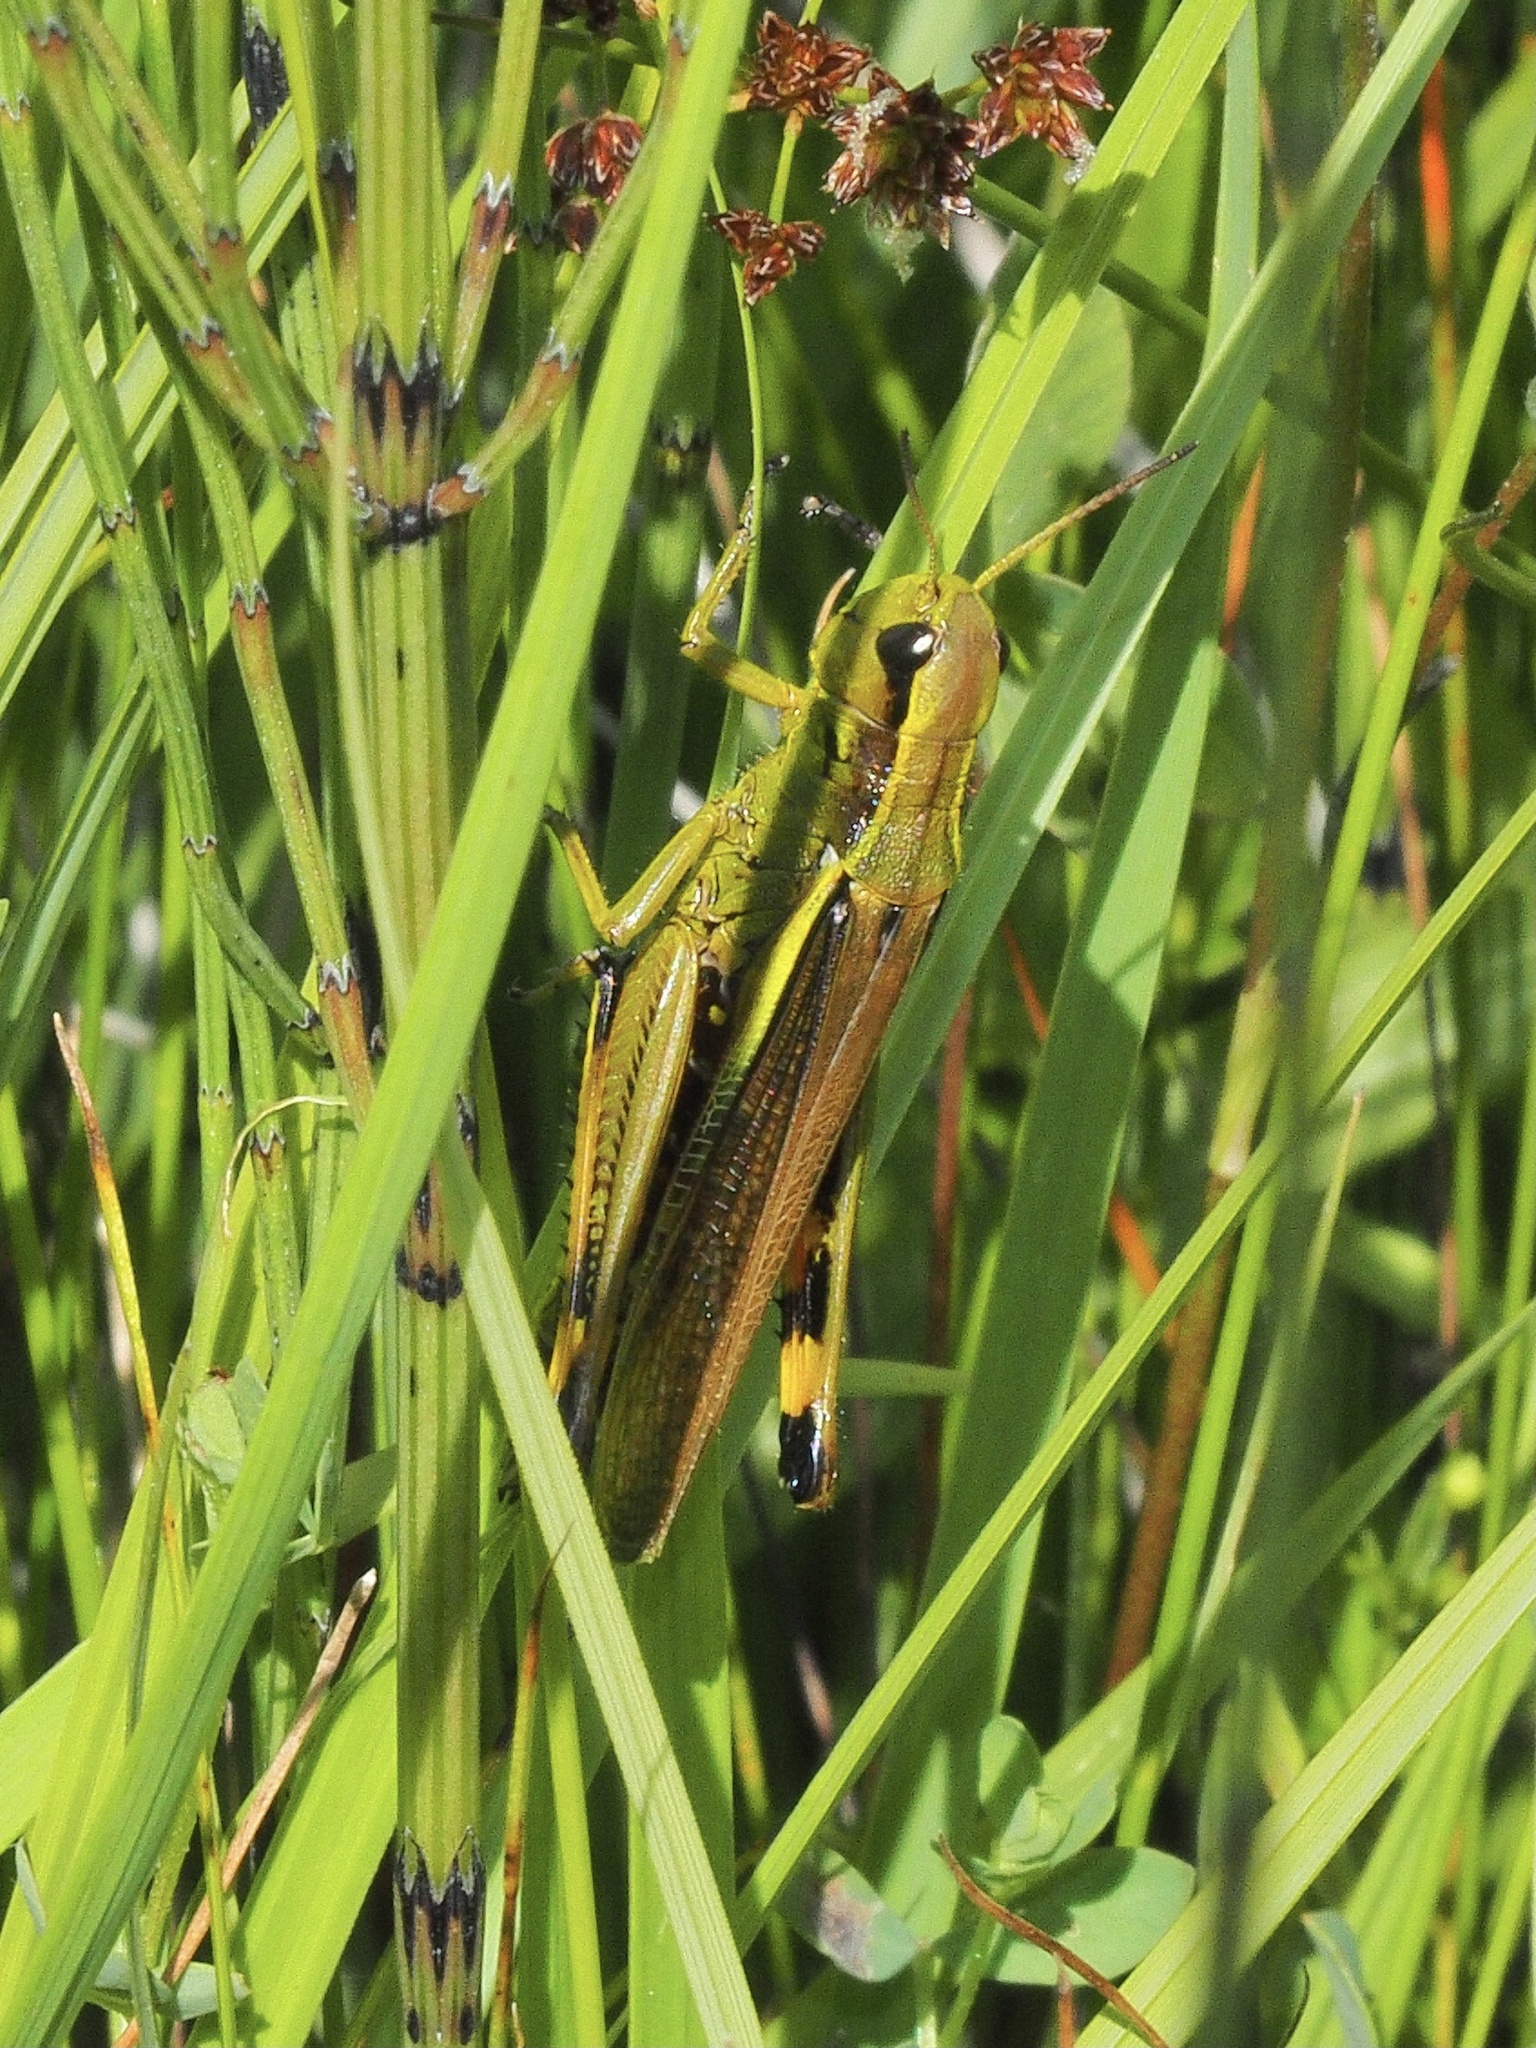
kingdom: Animalia
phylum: Arthropoda
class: Insecta
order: Orthoptera
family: Acrididae
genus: Stethophyma
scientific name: Stethophyma grossum
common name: Large marsh grasshopper
